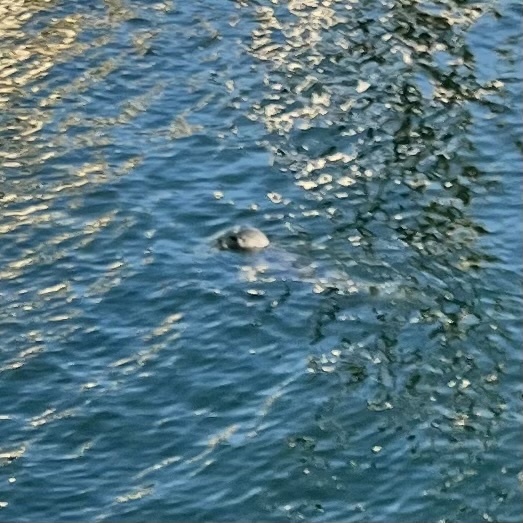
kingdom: Animalia
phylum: Chordata
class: Mammalia
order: Carnivora
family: Phocidae
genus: Phoca
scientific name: Phoca vitulina
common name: Harbor seal
